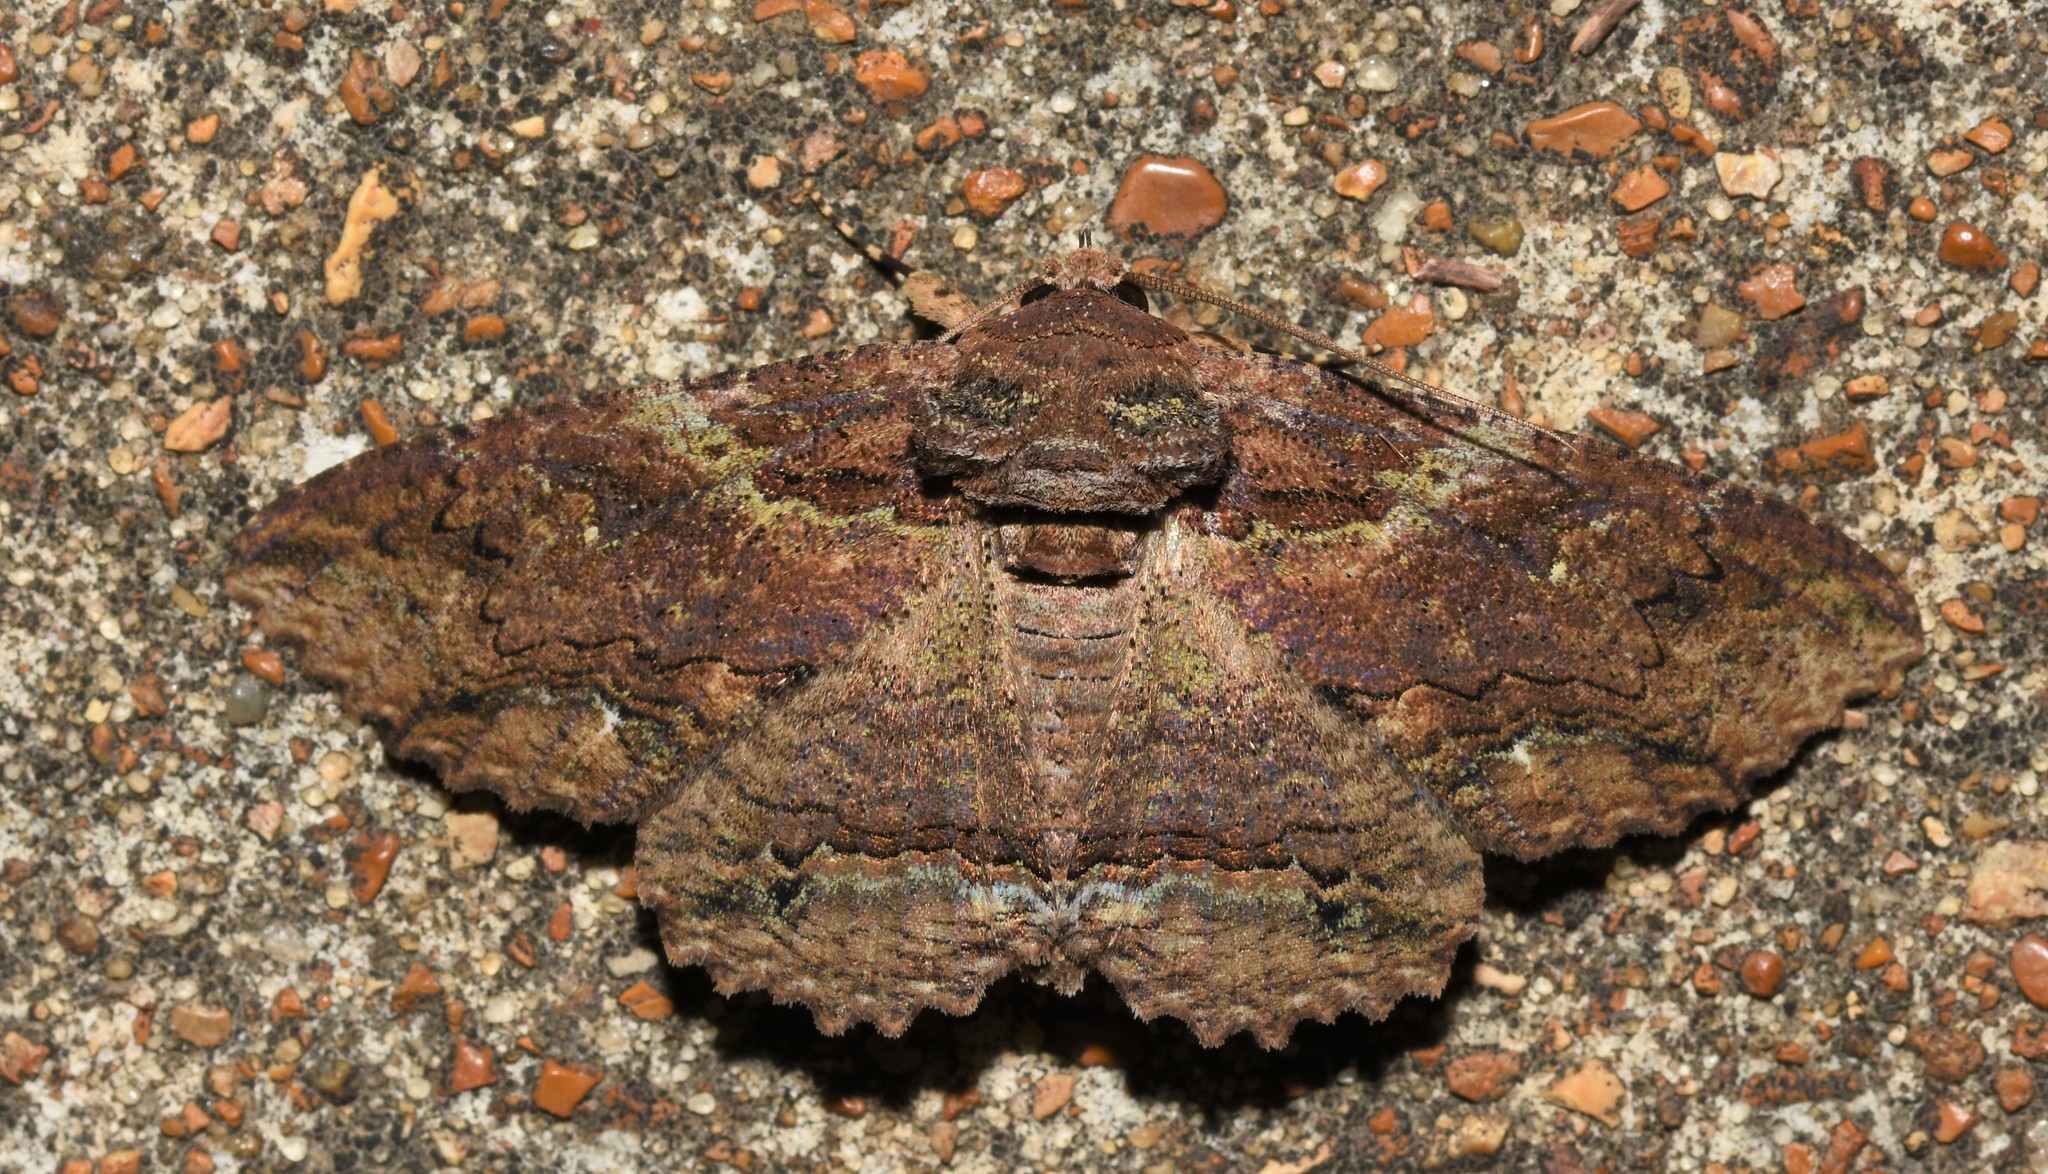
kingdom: Animalia
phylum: Arthropoda
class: Insecta
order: Lepidoptera
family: Erebidae
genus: Zale
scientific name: Zale lunata
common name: Lunate zale moth
